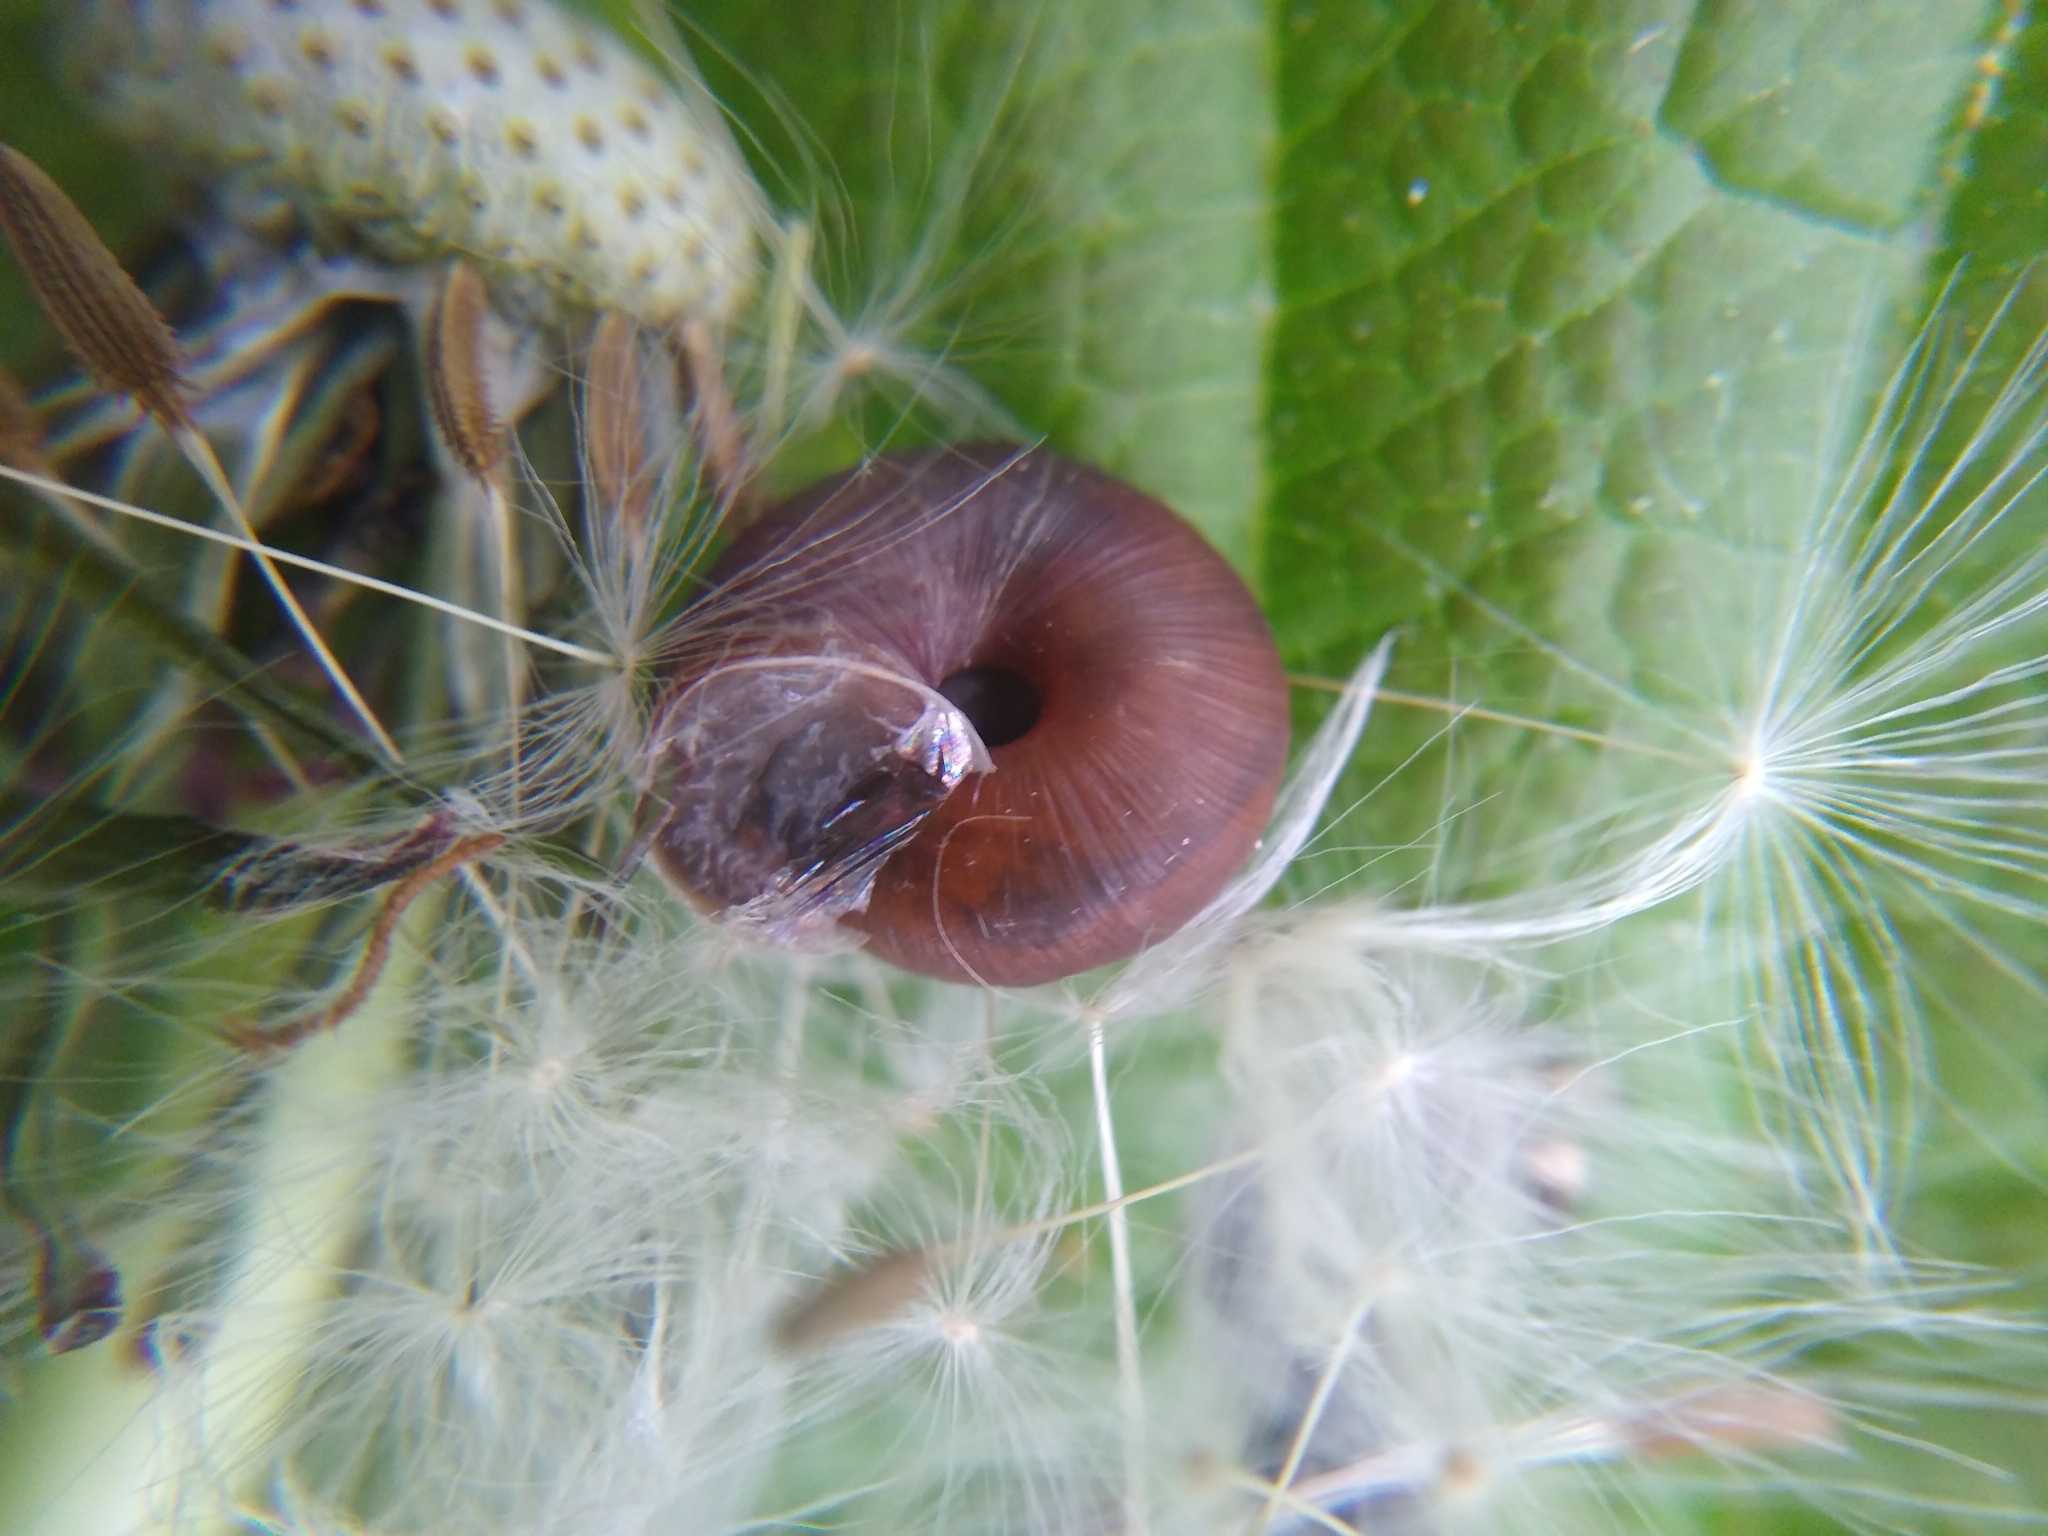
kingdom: Animalia
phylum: Mollusca
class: Gastropoda
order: Stylommatophora
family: Hygromiidae
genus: Trochulus
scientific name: Trochulus striolatus
